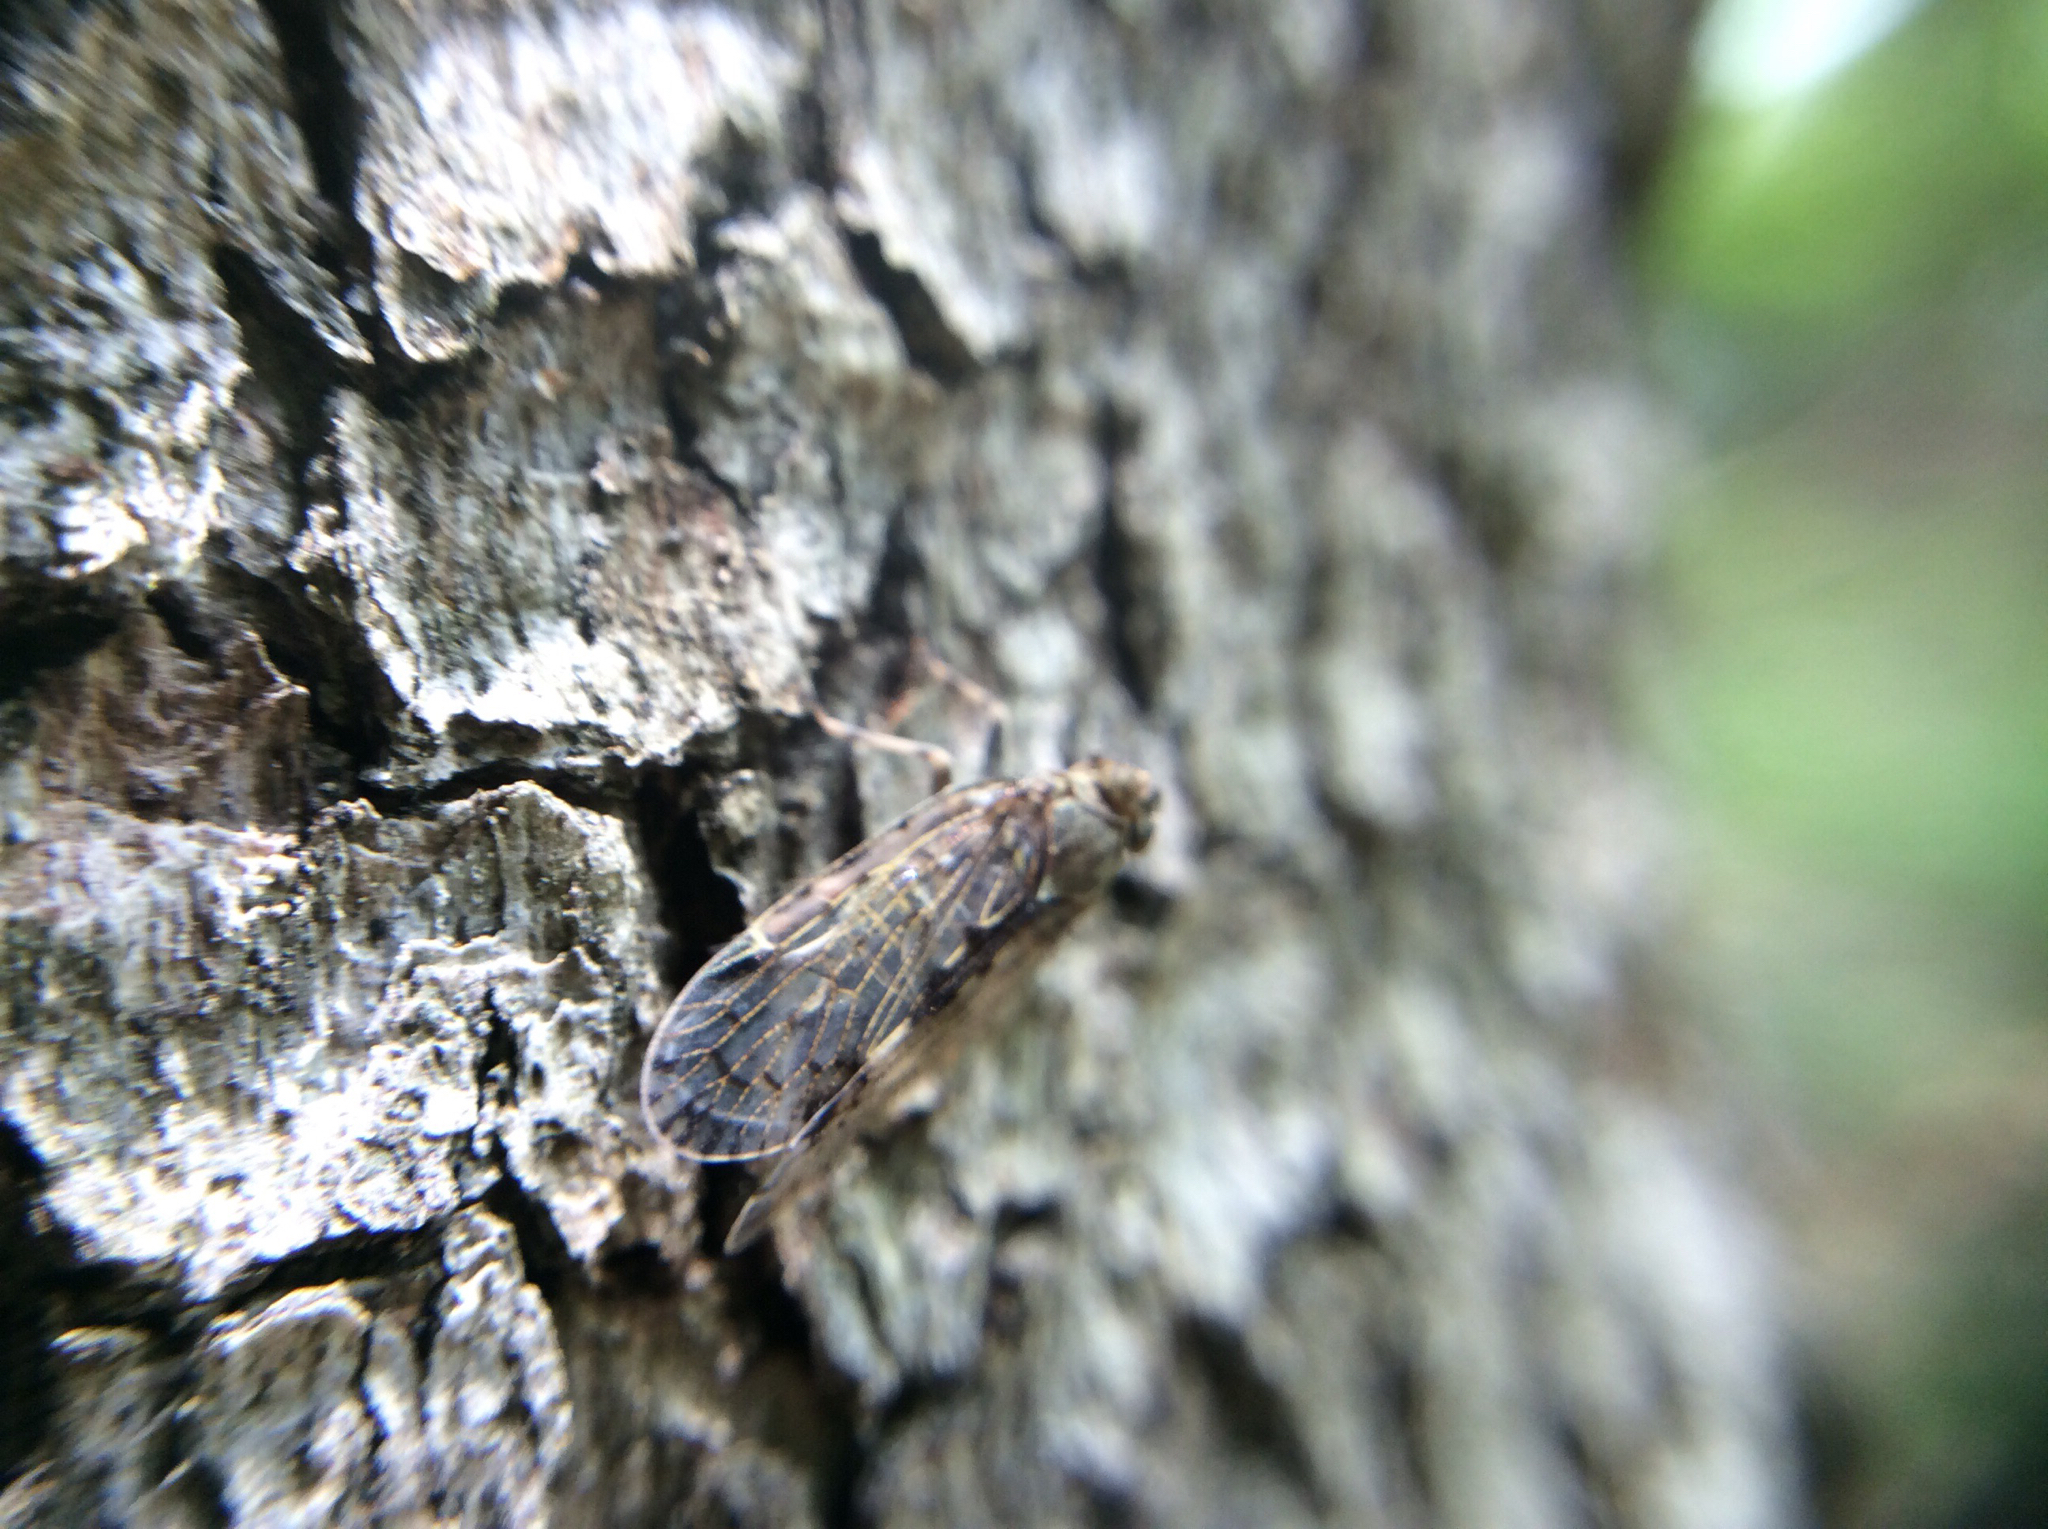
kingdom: Animalia
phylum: Arthropoda
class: Insecta
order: Hemiptera
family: Cixiidae
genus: Melanoliarus
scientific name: Melanoliarus placitus
